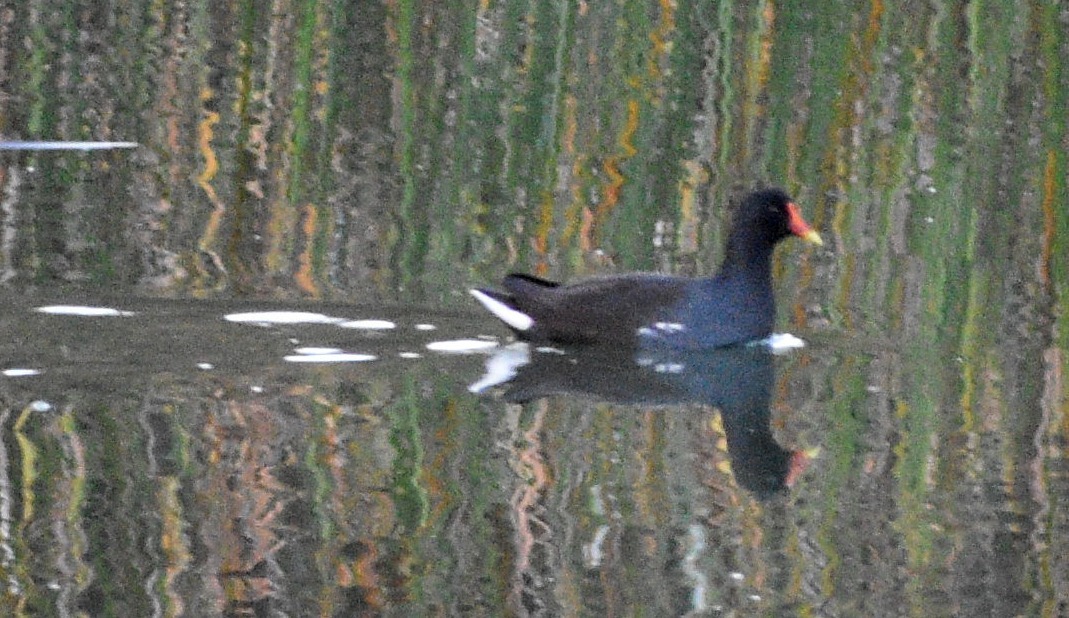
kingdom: Animalia
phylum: Chordata
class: Aves
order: Gruiformes
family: Rallidae
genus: Gallinula
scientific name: Gallinula chloropus
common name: Common moorhen
